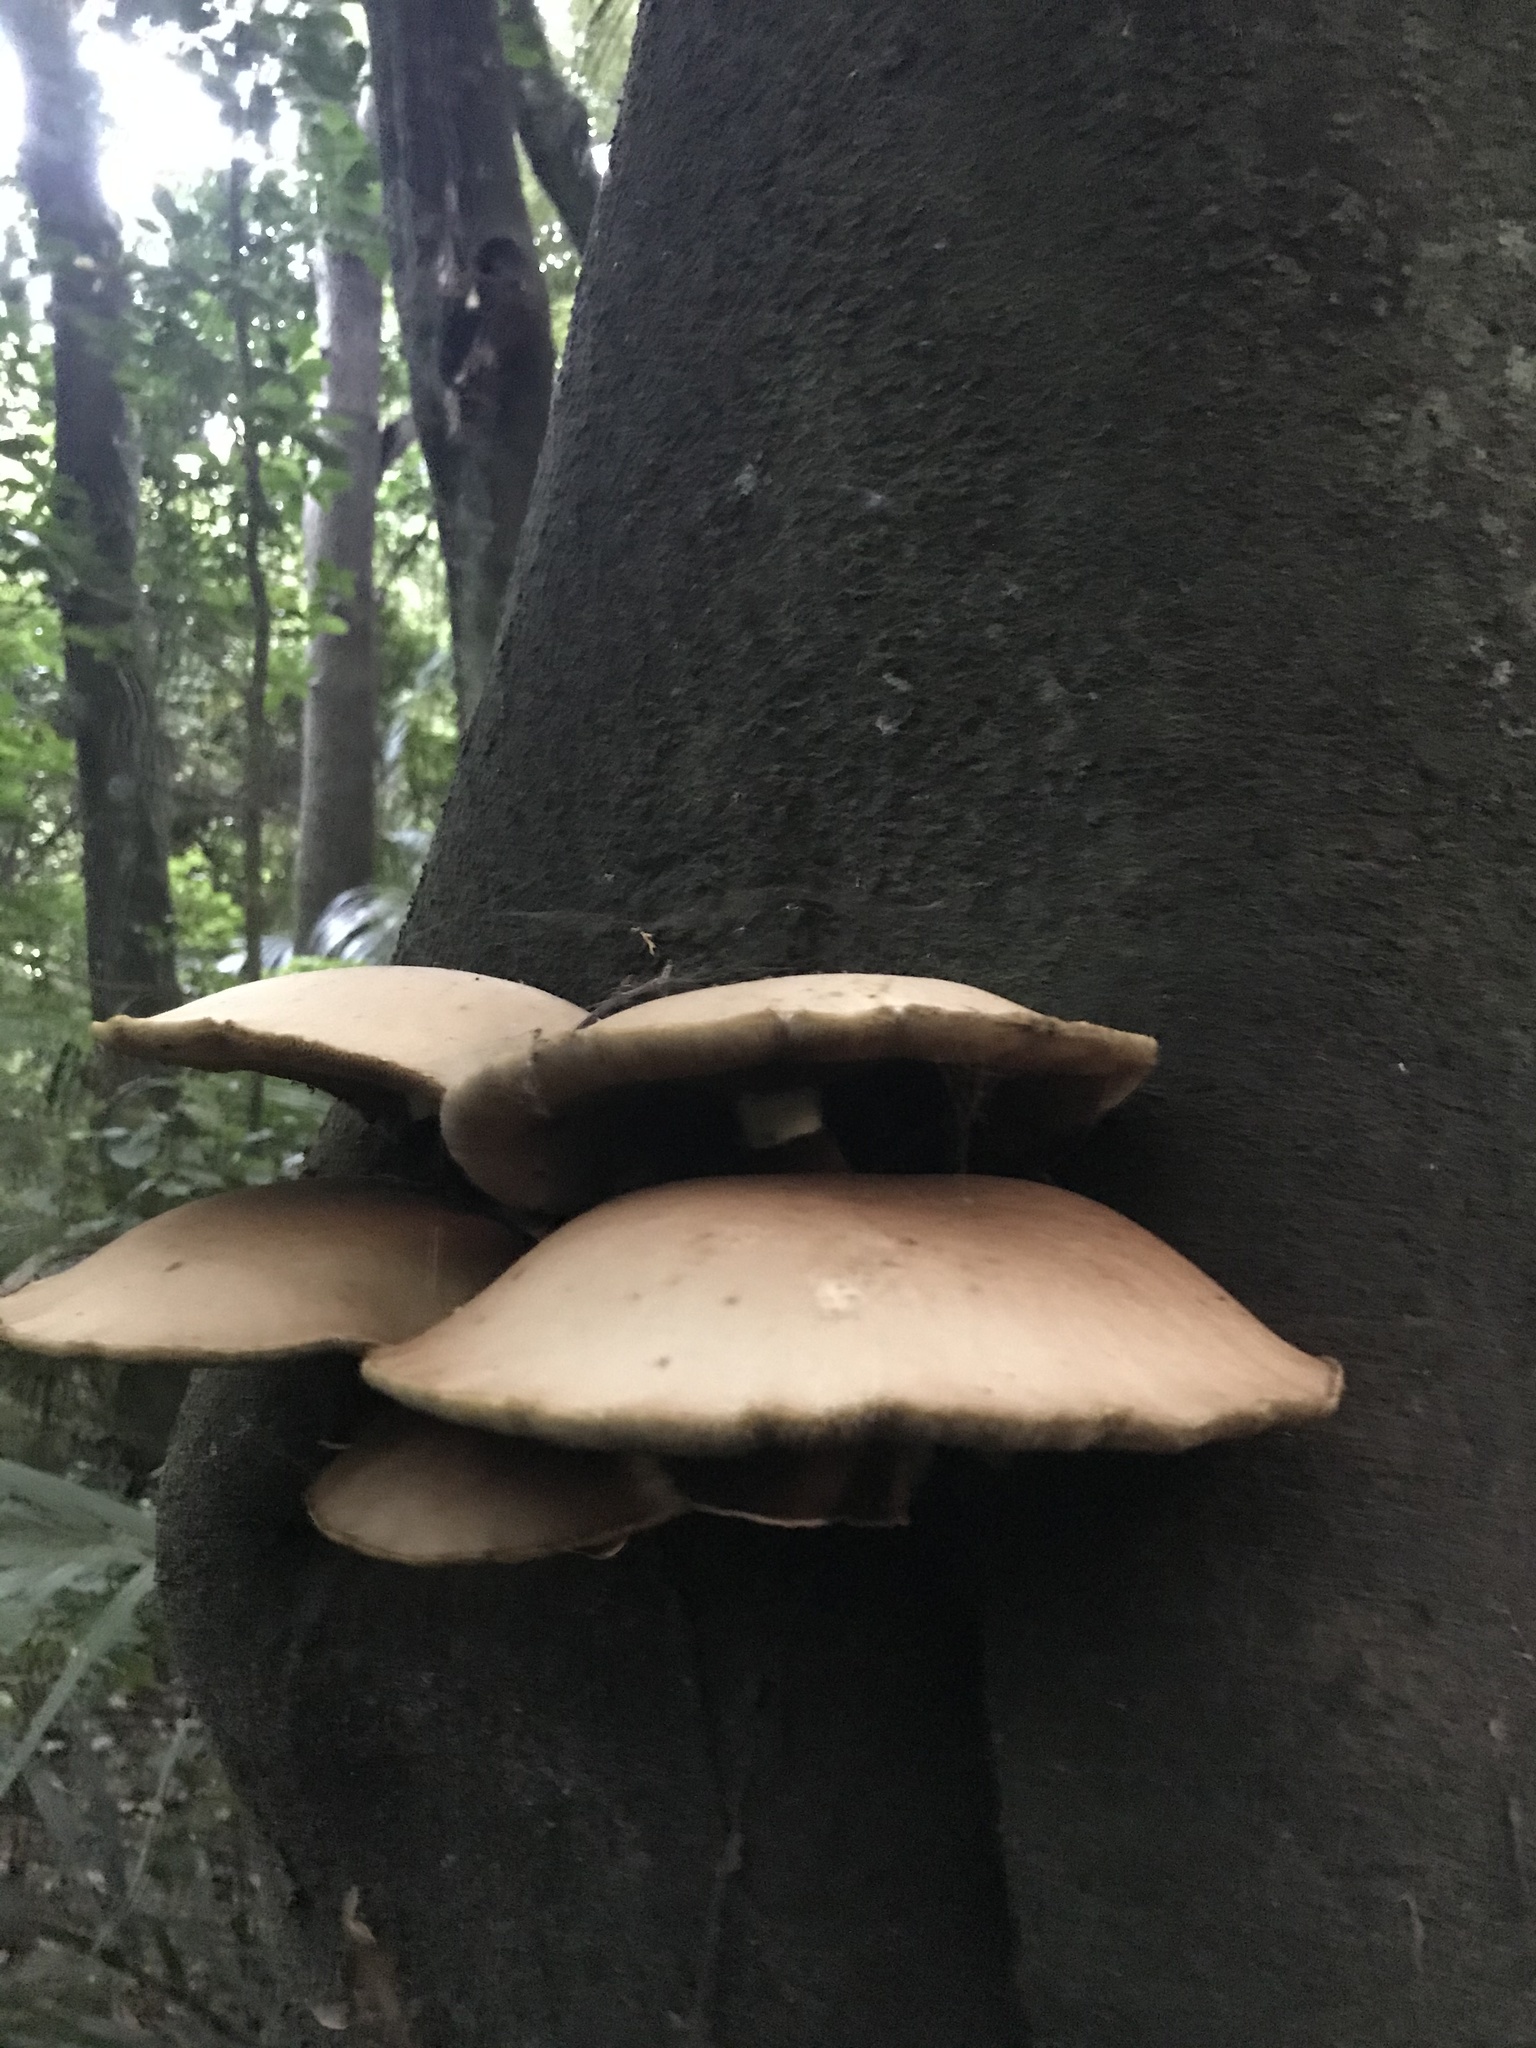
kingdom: Fungi
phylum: Basidiomycota
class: Agaricomycetes
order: Agaricales
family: Tubariaceae
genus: Cyclocybe
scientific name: Cyclocybe parasitica
